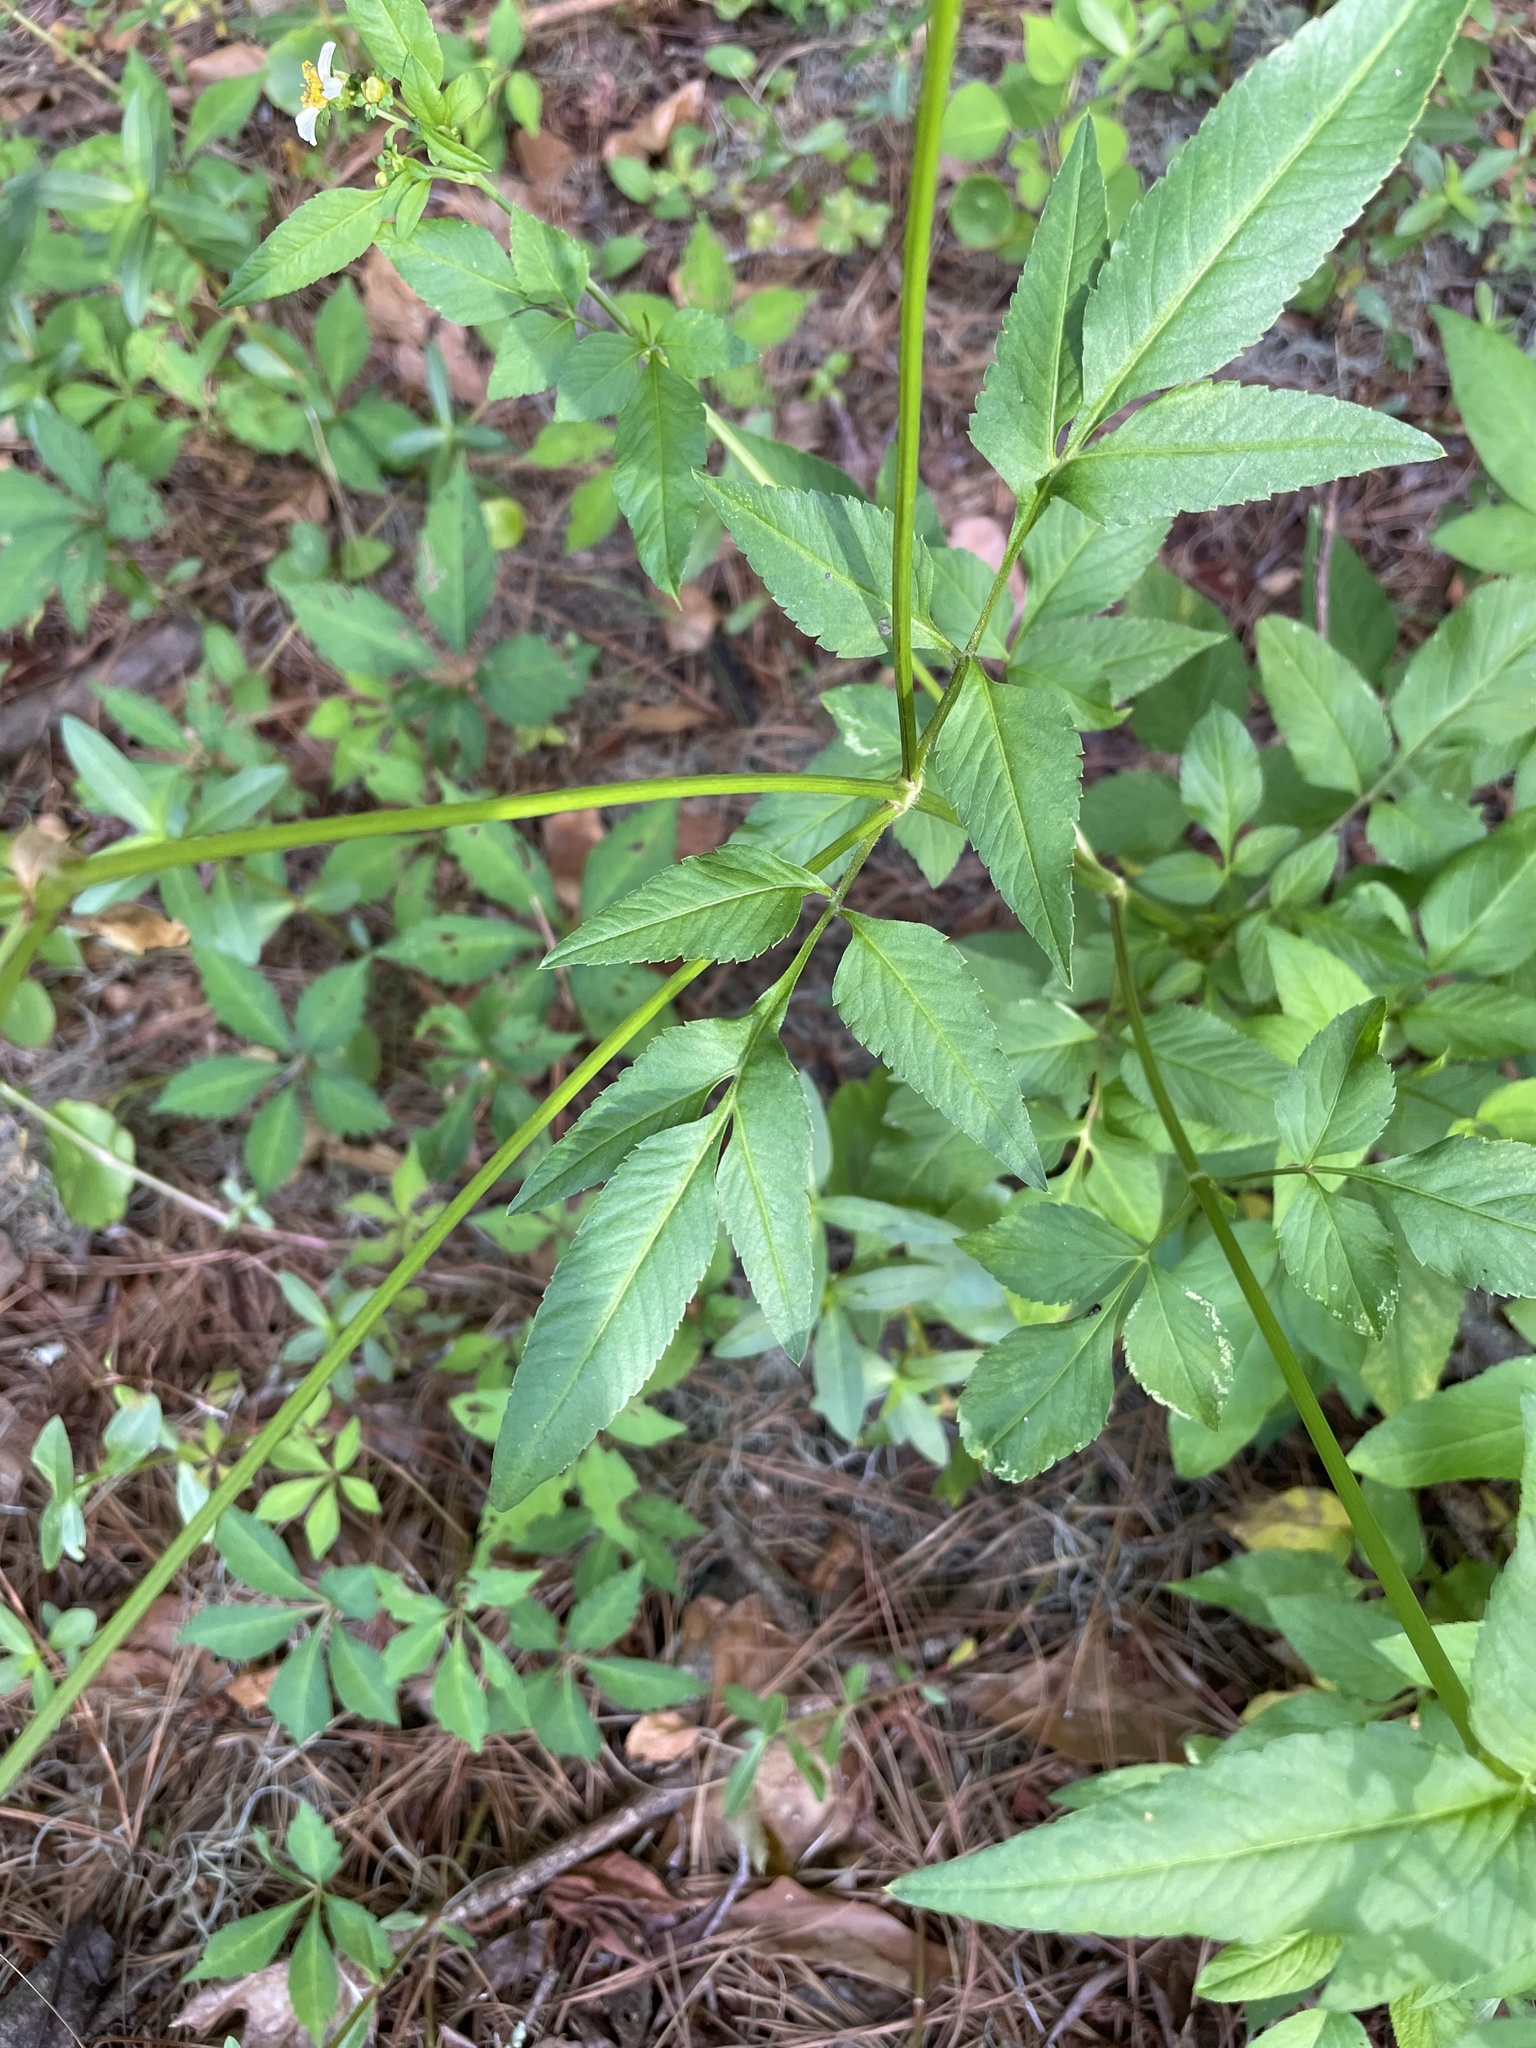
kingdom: Plantae
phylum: Tracheophyta
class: Magnoliopsida
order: Asterales
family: Asteraceae
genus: Bidens
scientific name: Bidens alba
